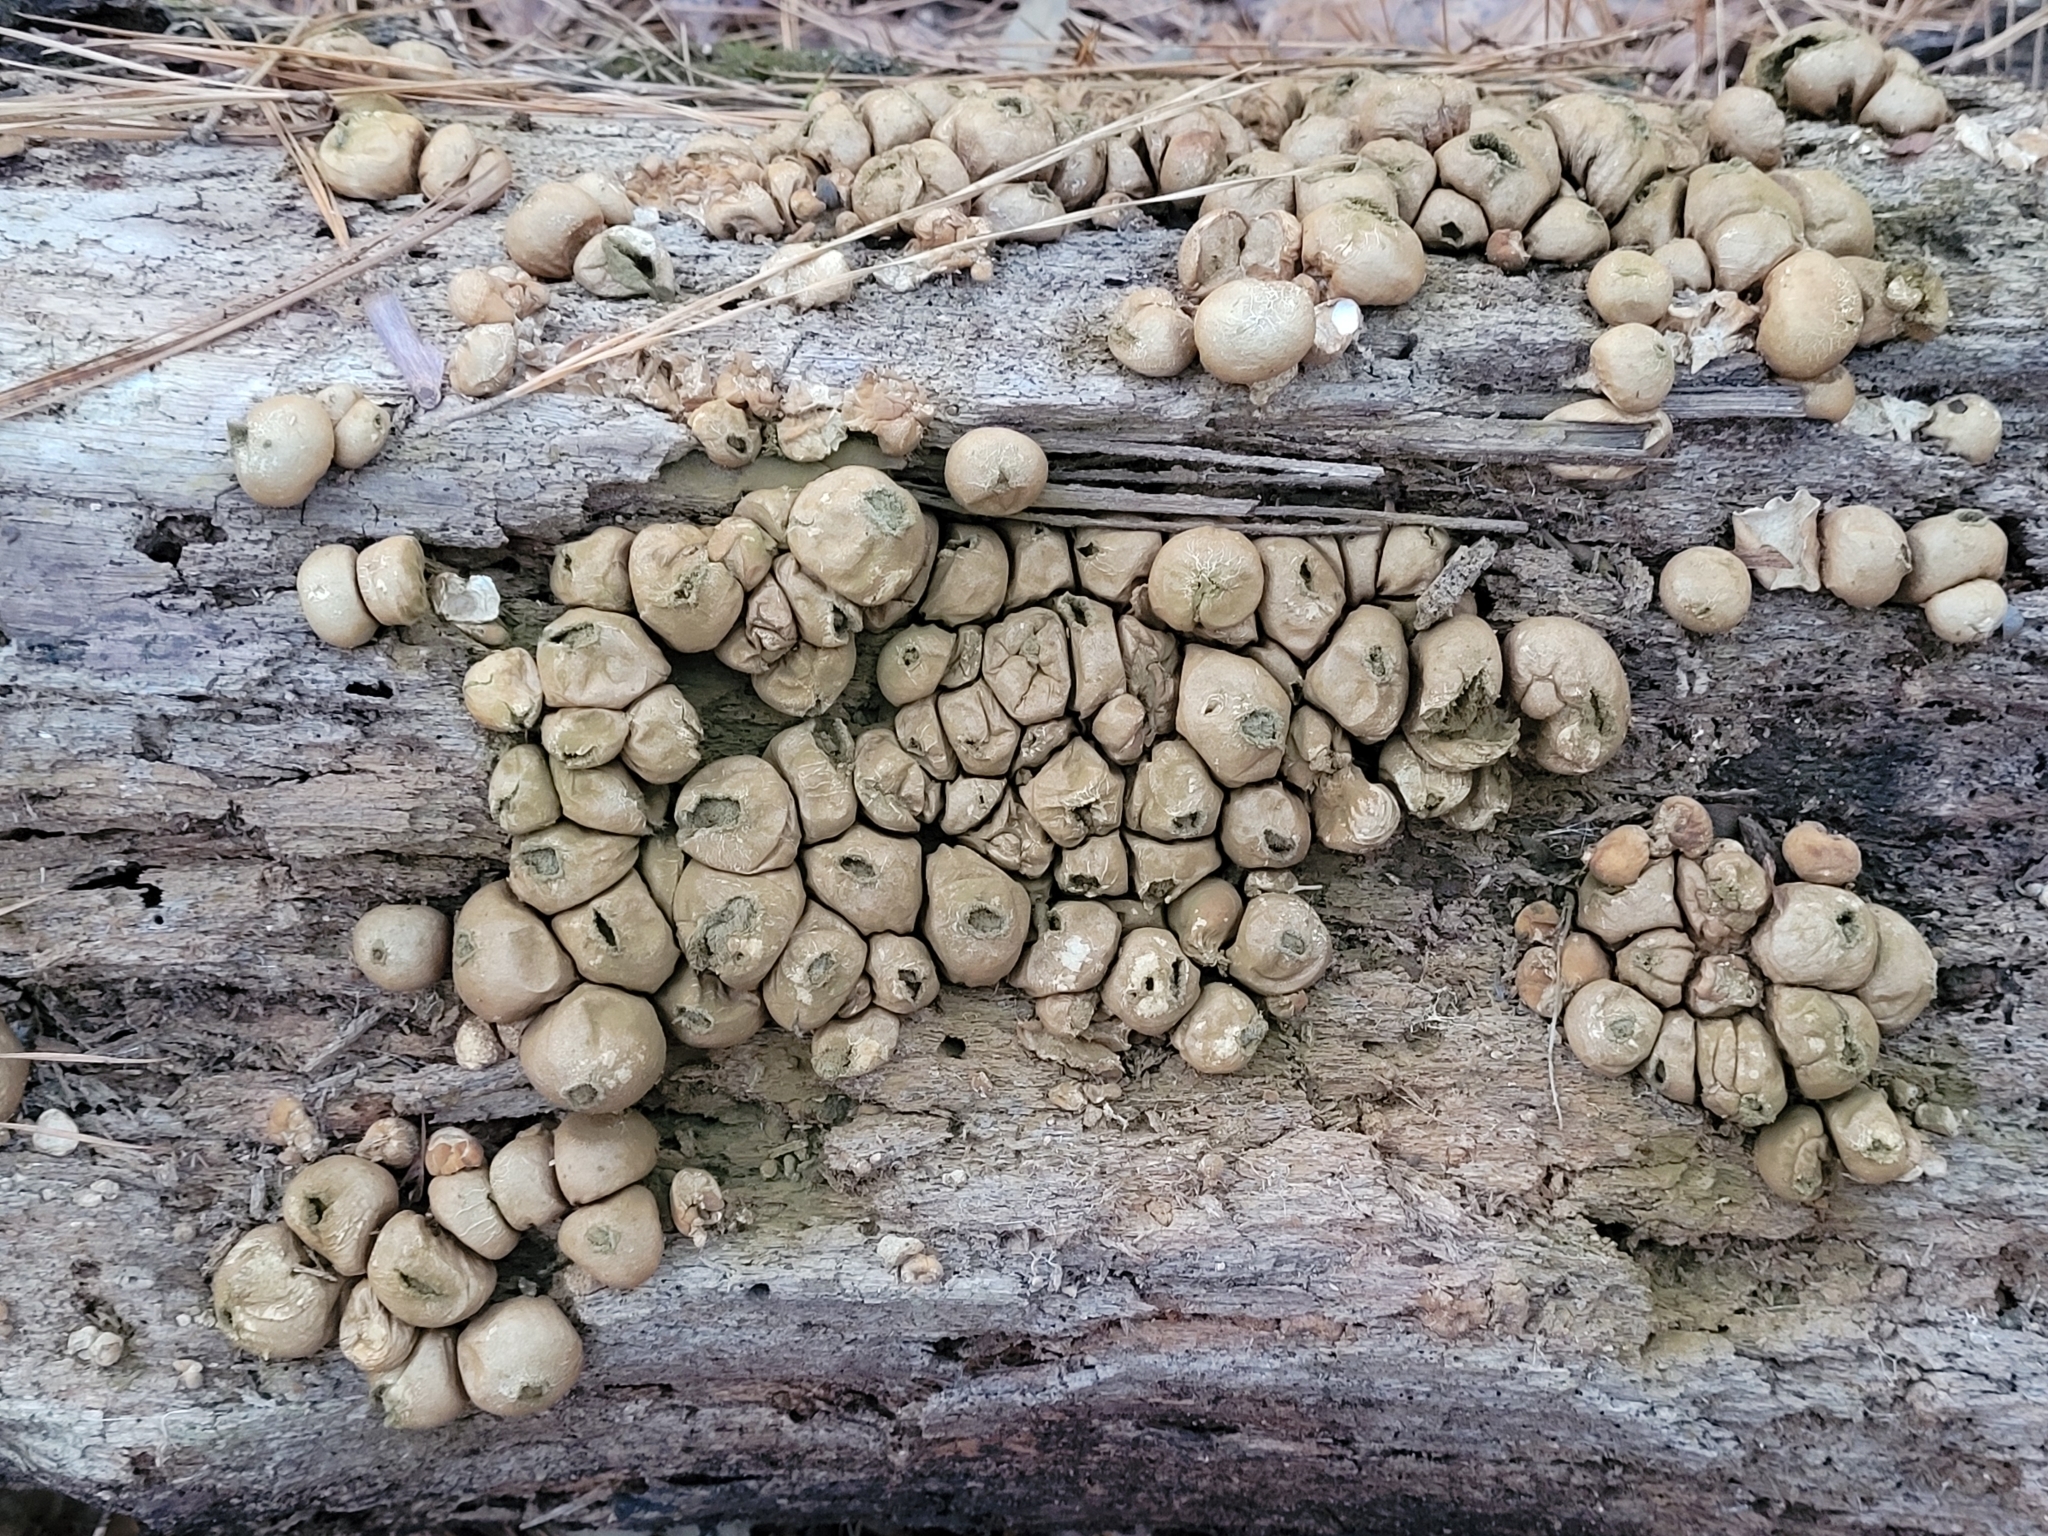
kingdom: Fungi
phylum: Basidiomycota
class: Agaricomycetes
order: Agaricales
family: Lycoperdaceae
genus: Apioperdon
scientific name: Apioperdon pyriforme
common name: Pear-shaped puffball
